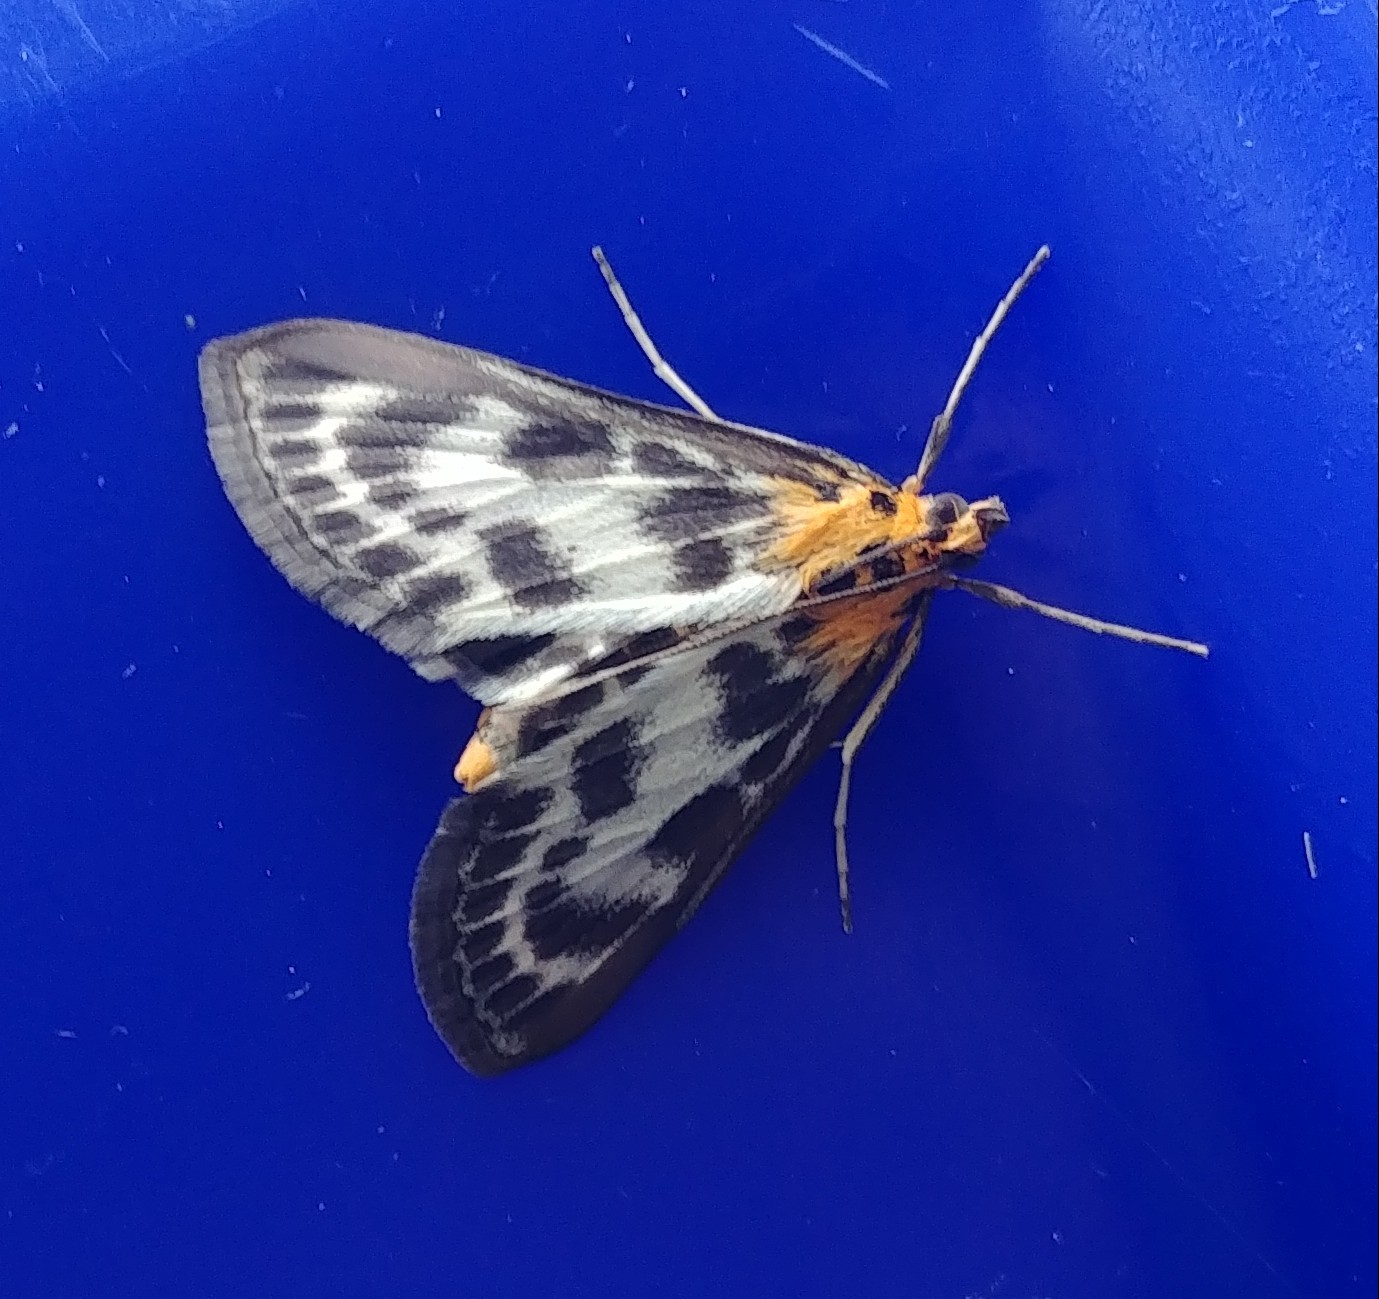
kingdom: Animalia
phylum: Arthropoda
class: Insecta
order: Lepidoptera
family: Crambidae
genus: Anania
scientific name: Anania hortulata
